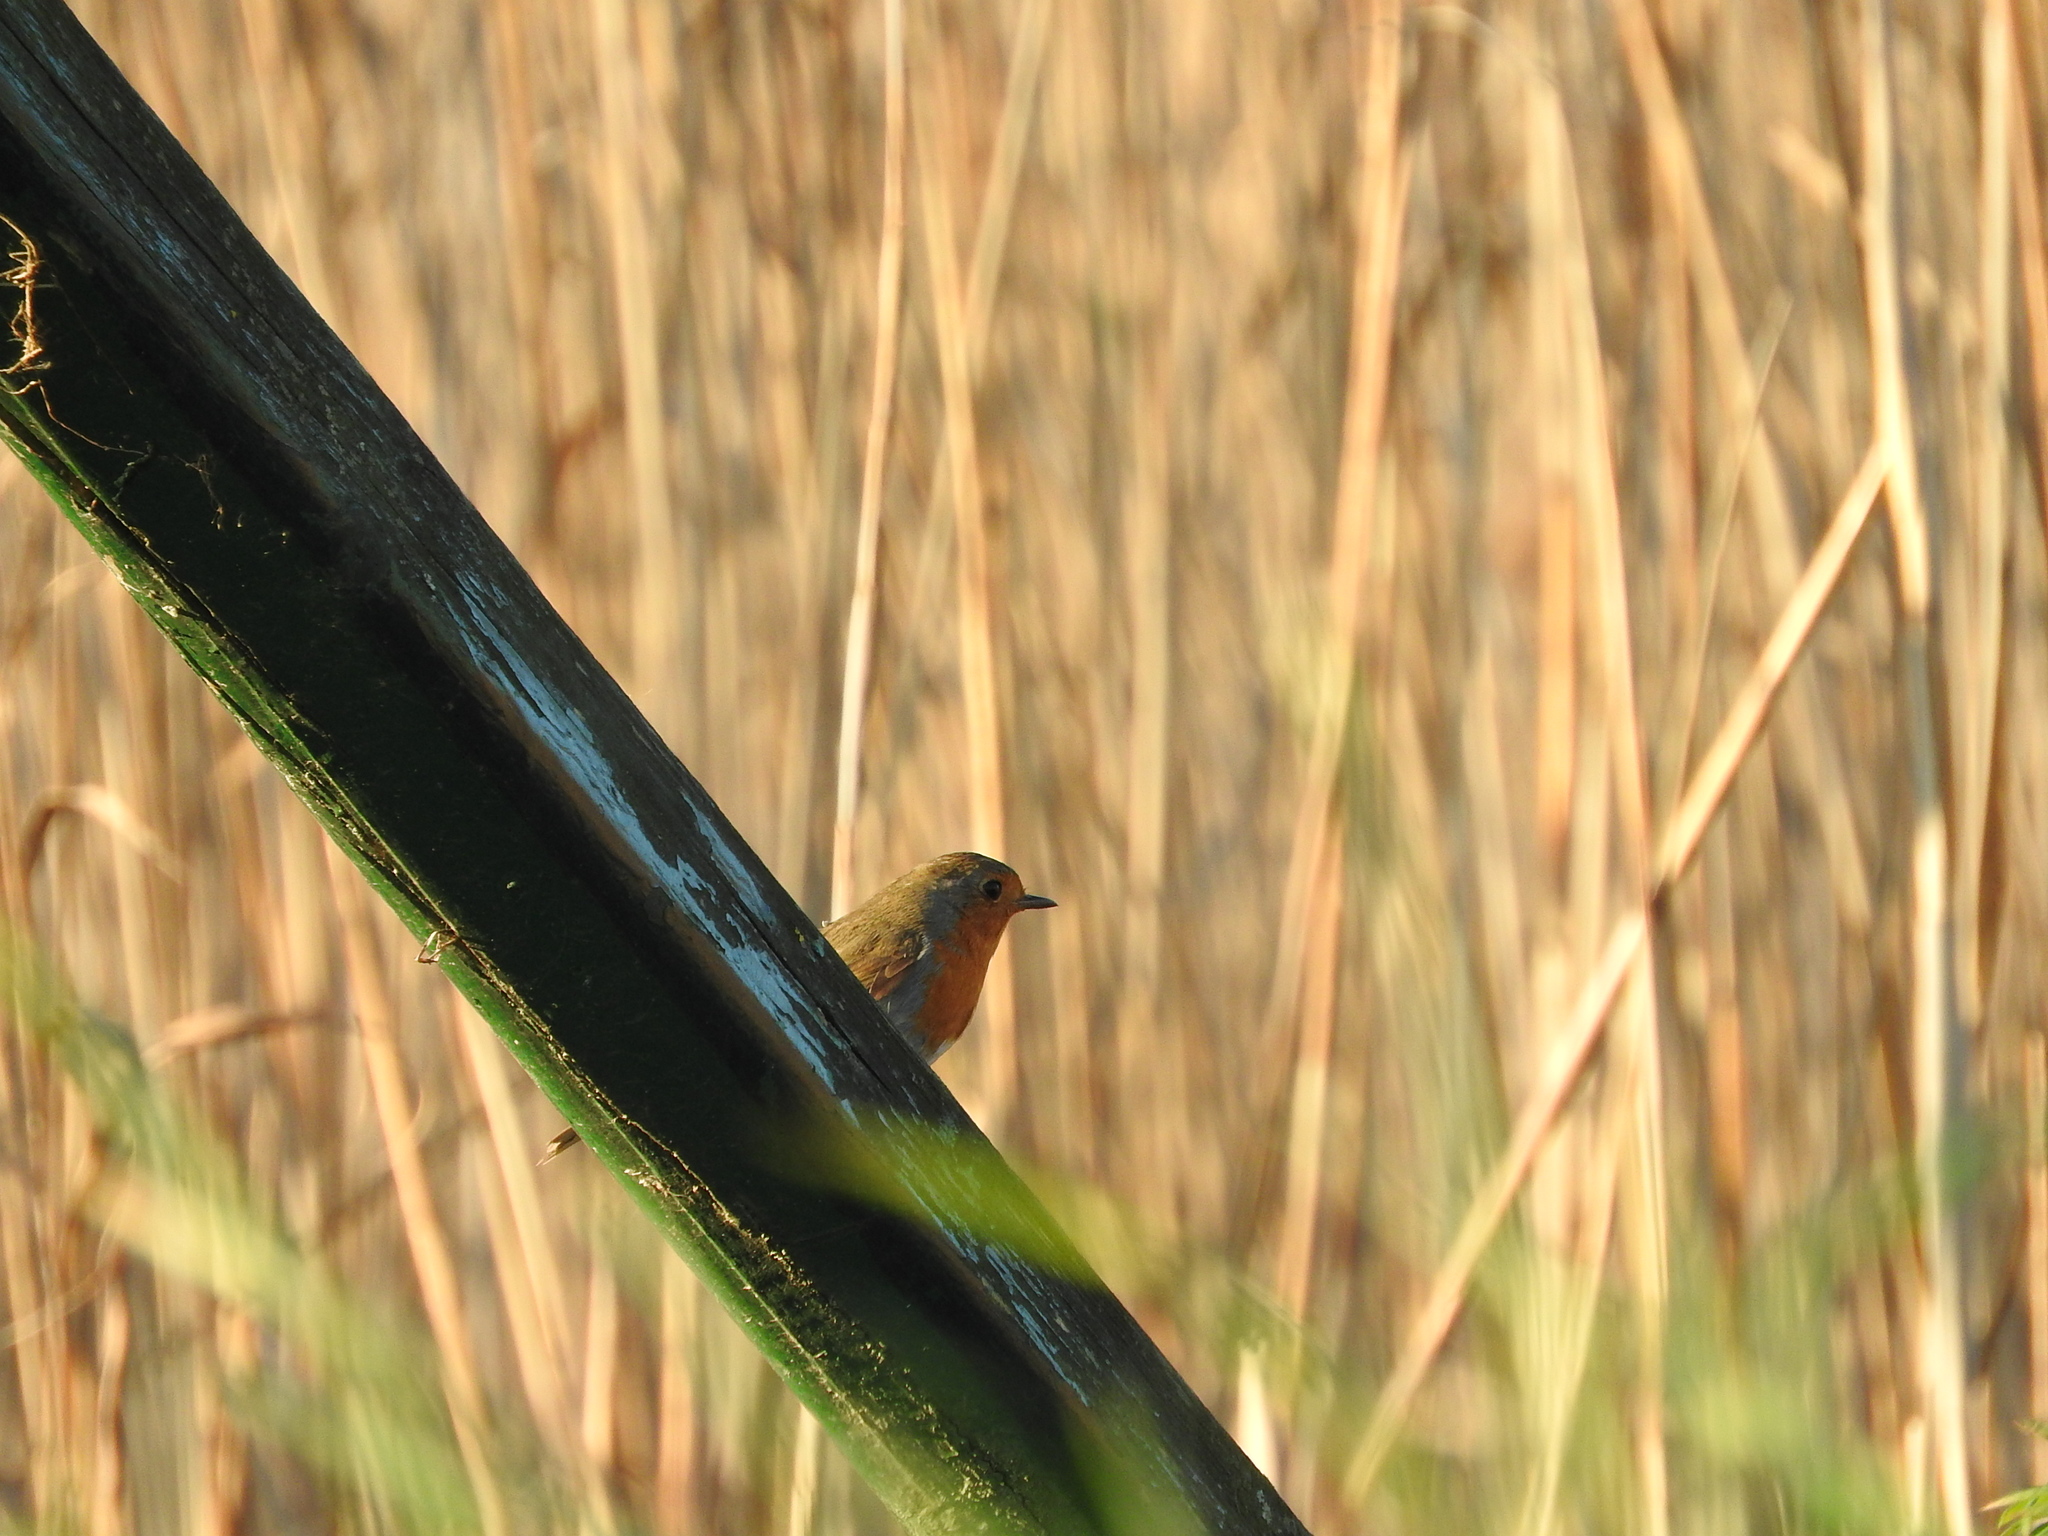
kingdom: Animalia
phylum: Chordata
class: Aves
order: Passeriformes
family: Muscicapidae
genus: Erithacus
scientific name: Erithacus rubecula
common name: European robin
